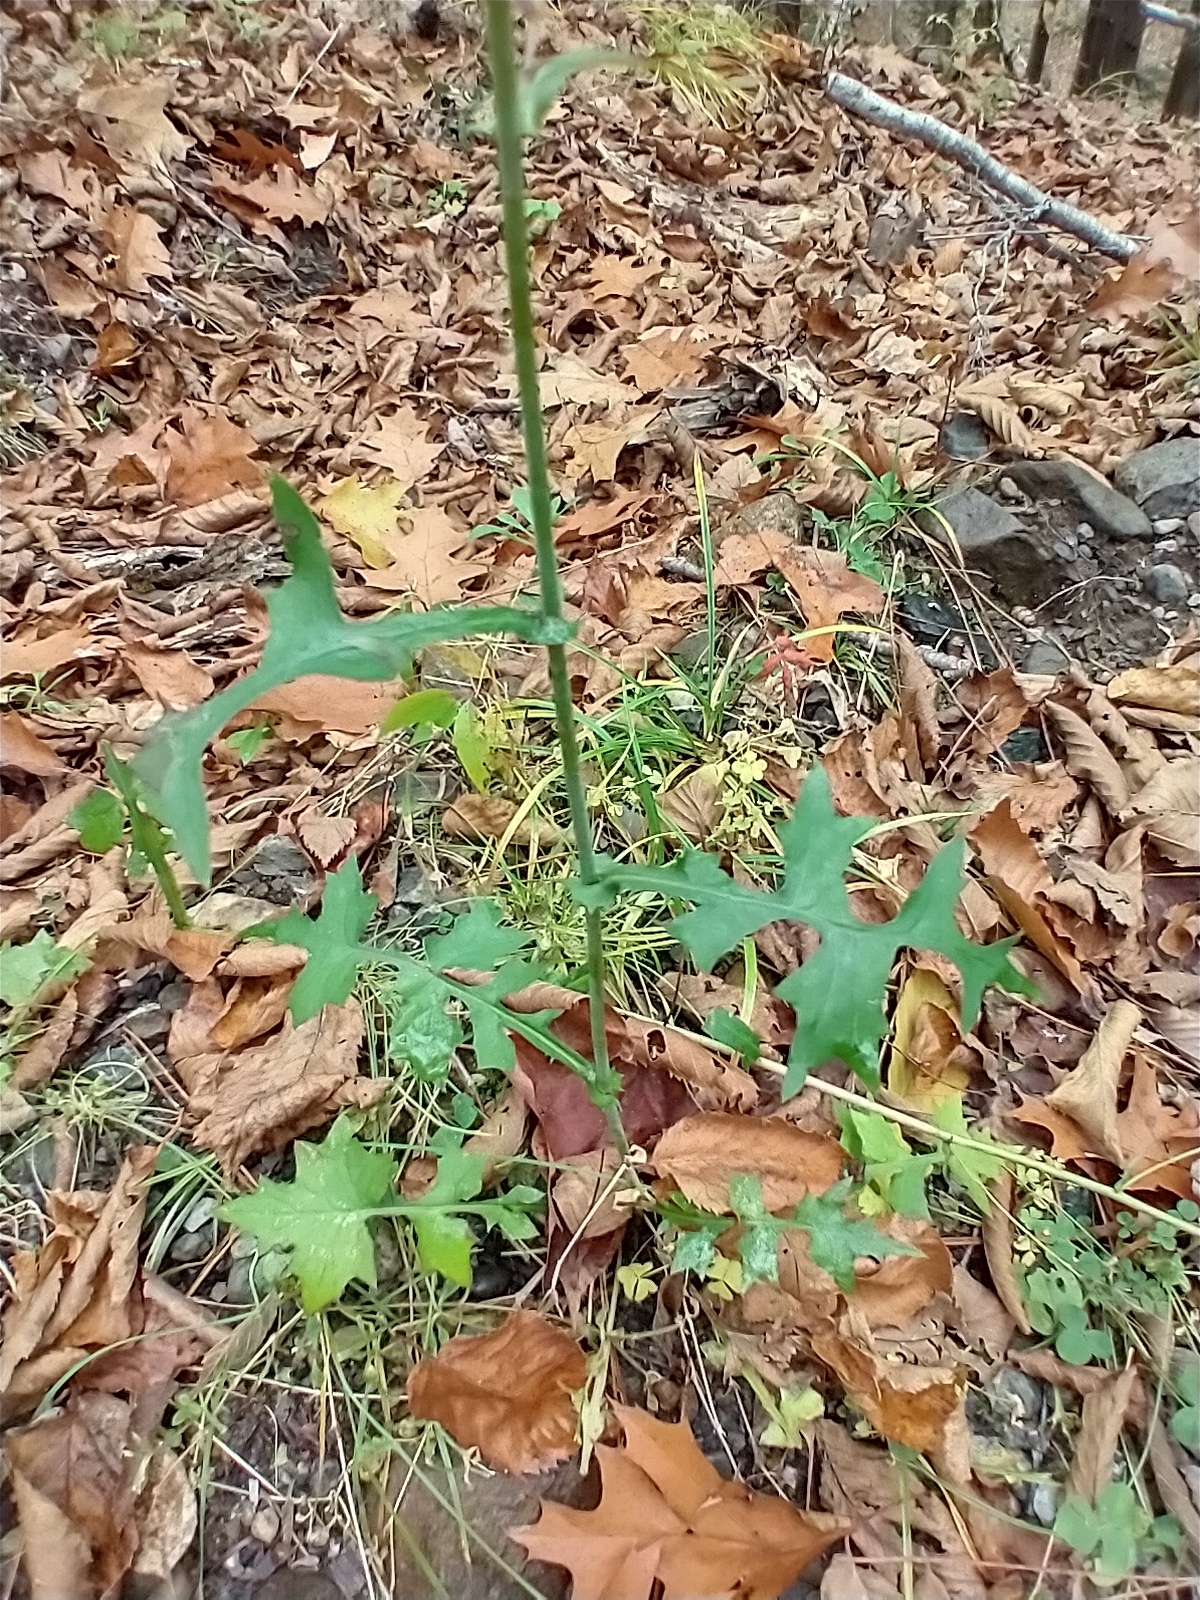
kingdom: Plantae
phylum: Tracheophyta
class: Magnoliopsida
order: Asterales
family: Asteraceae
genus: Mycelis
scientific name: Mycelis muralis
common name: Wall lettuce
